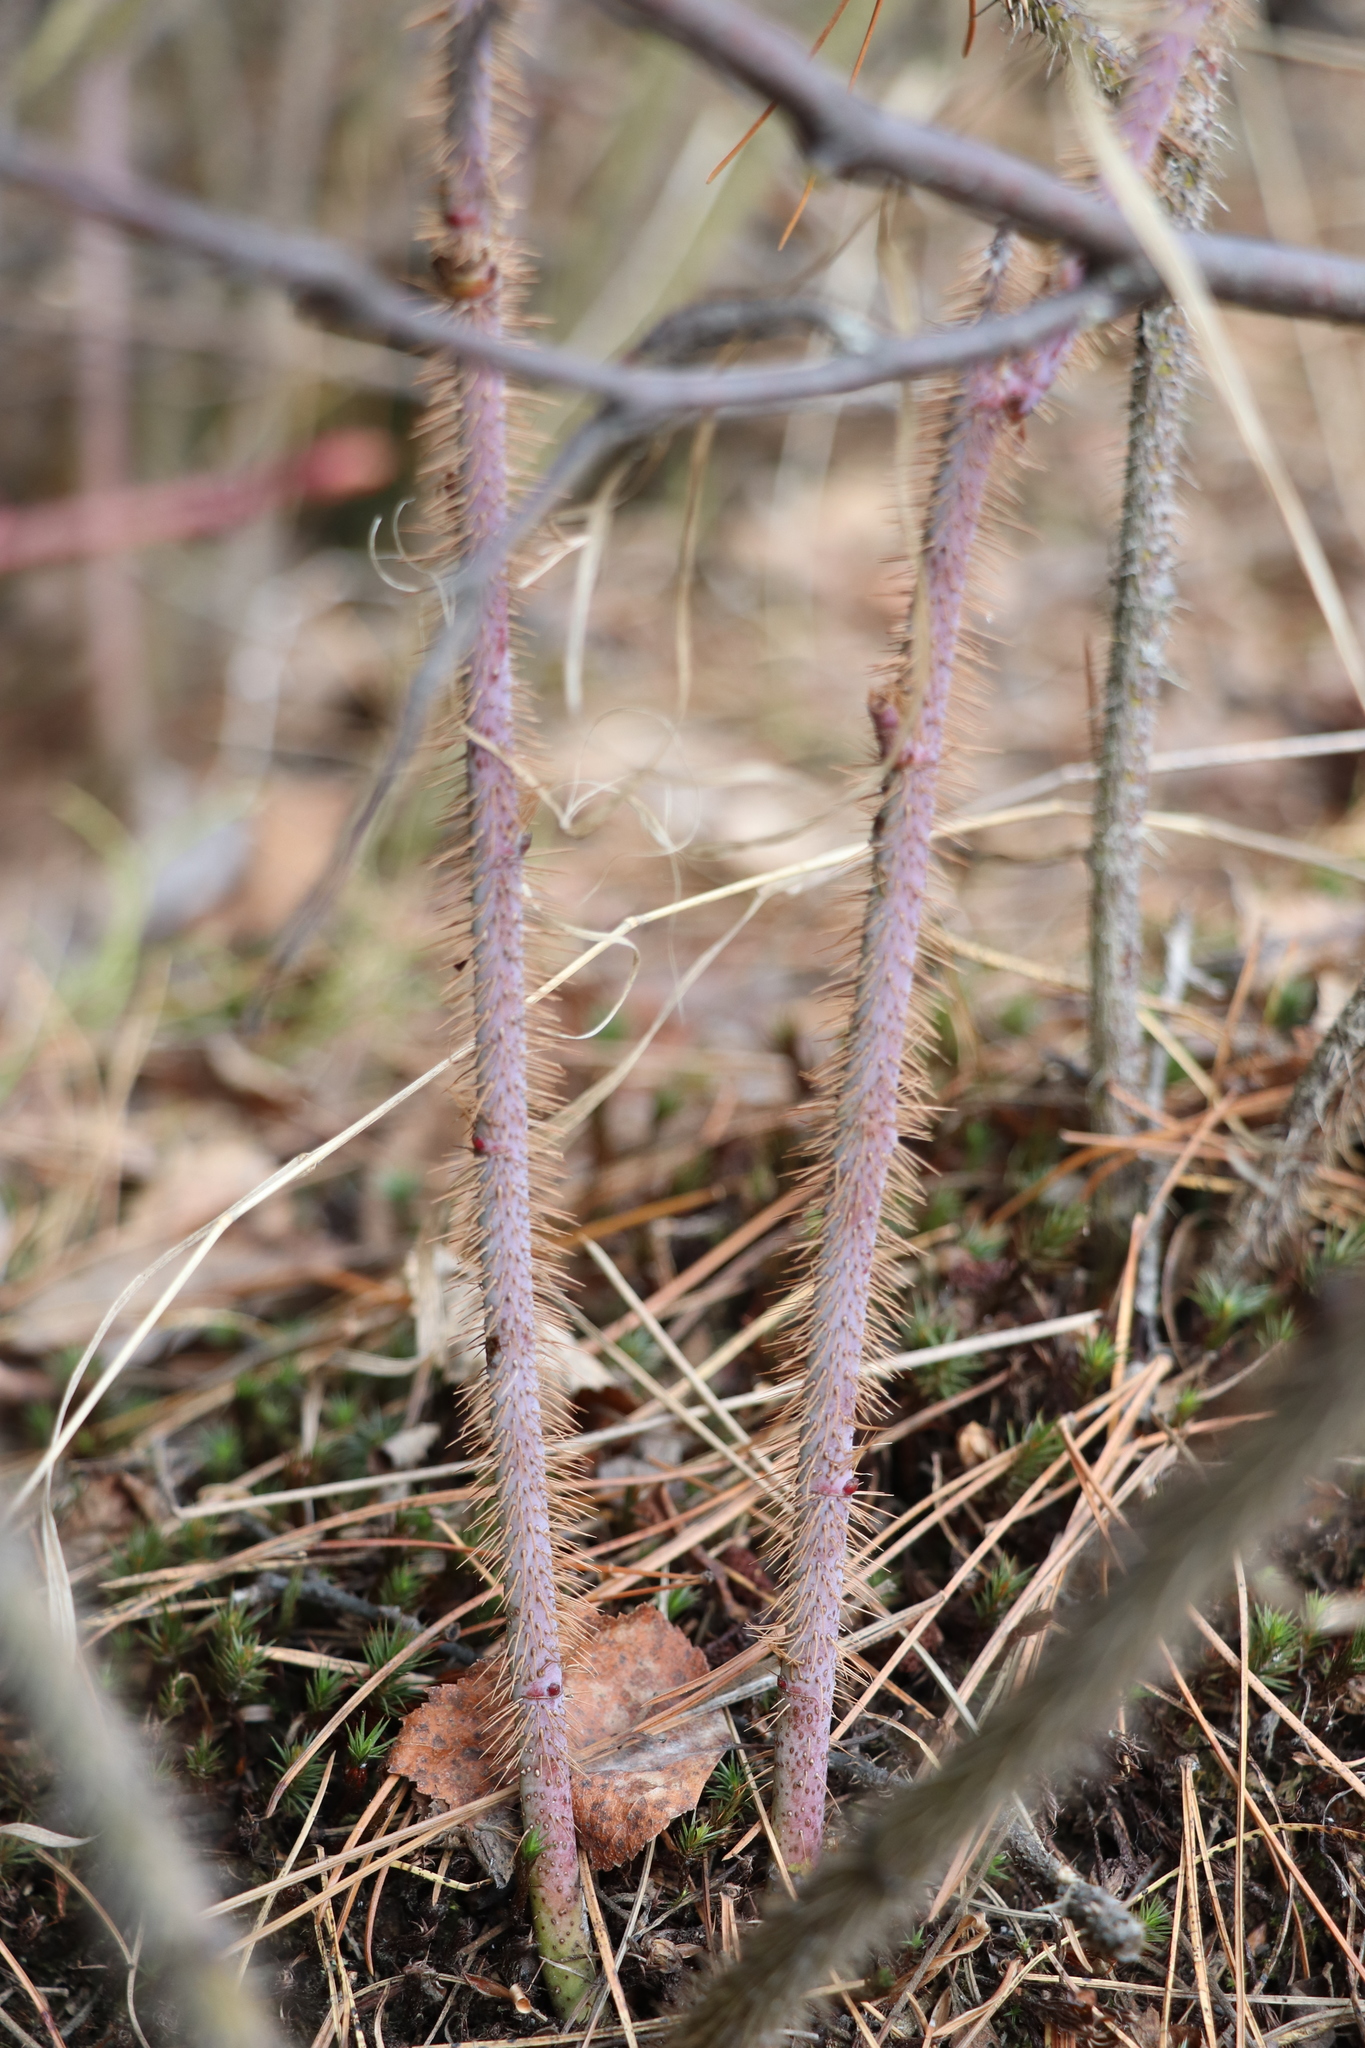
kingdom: Plantae
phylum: Tracheophyta
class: Magnoliopsida
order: Rosales
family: Rosaceae
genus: Rosa
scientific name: Rosa acicularis
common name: Prickly rose
